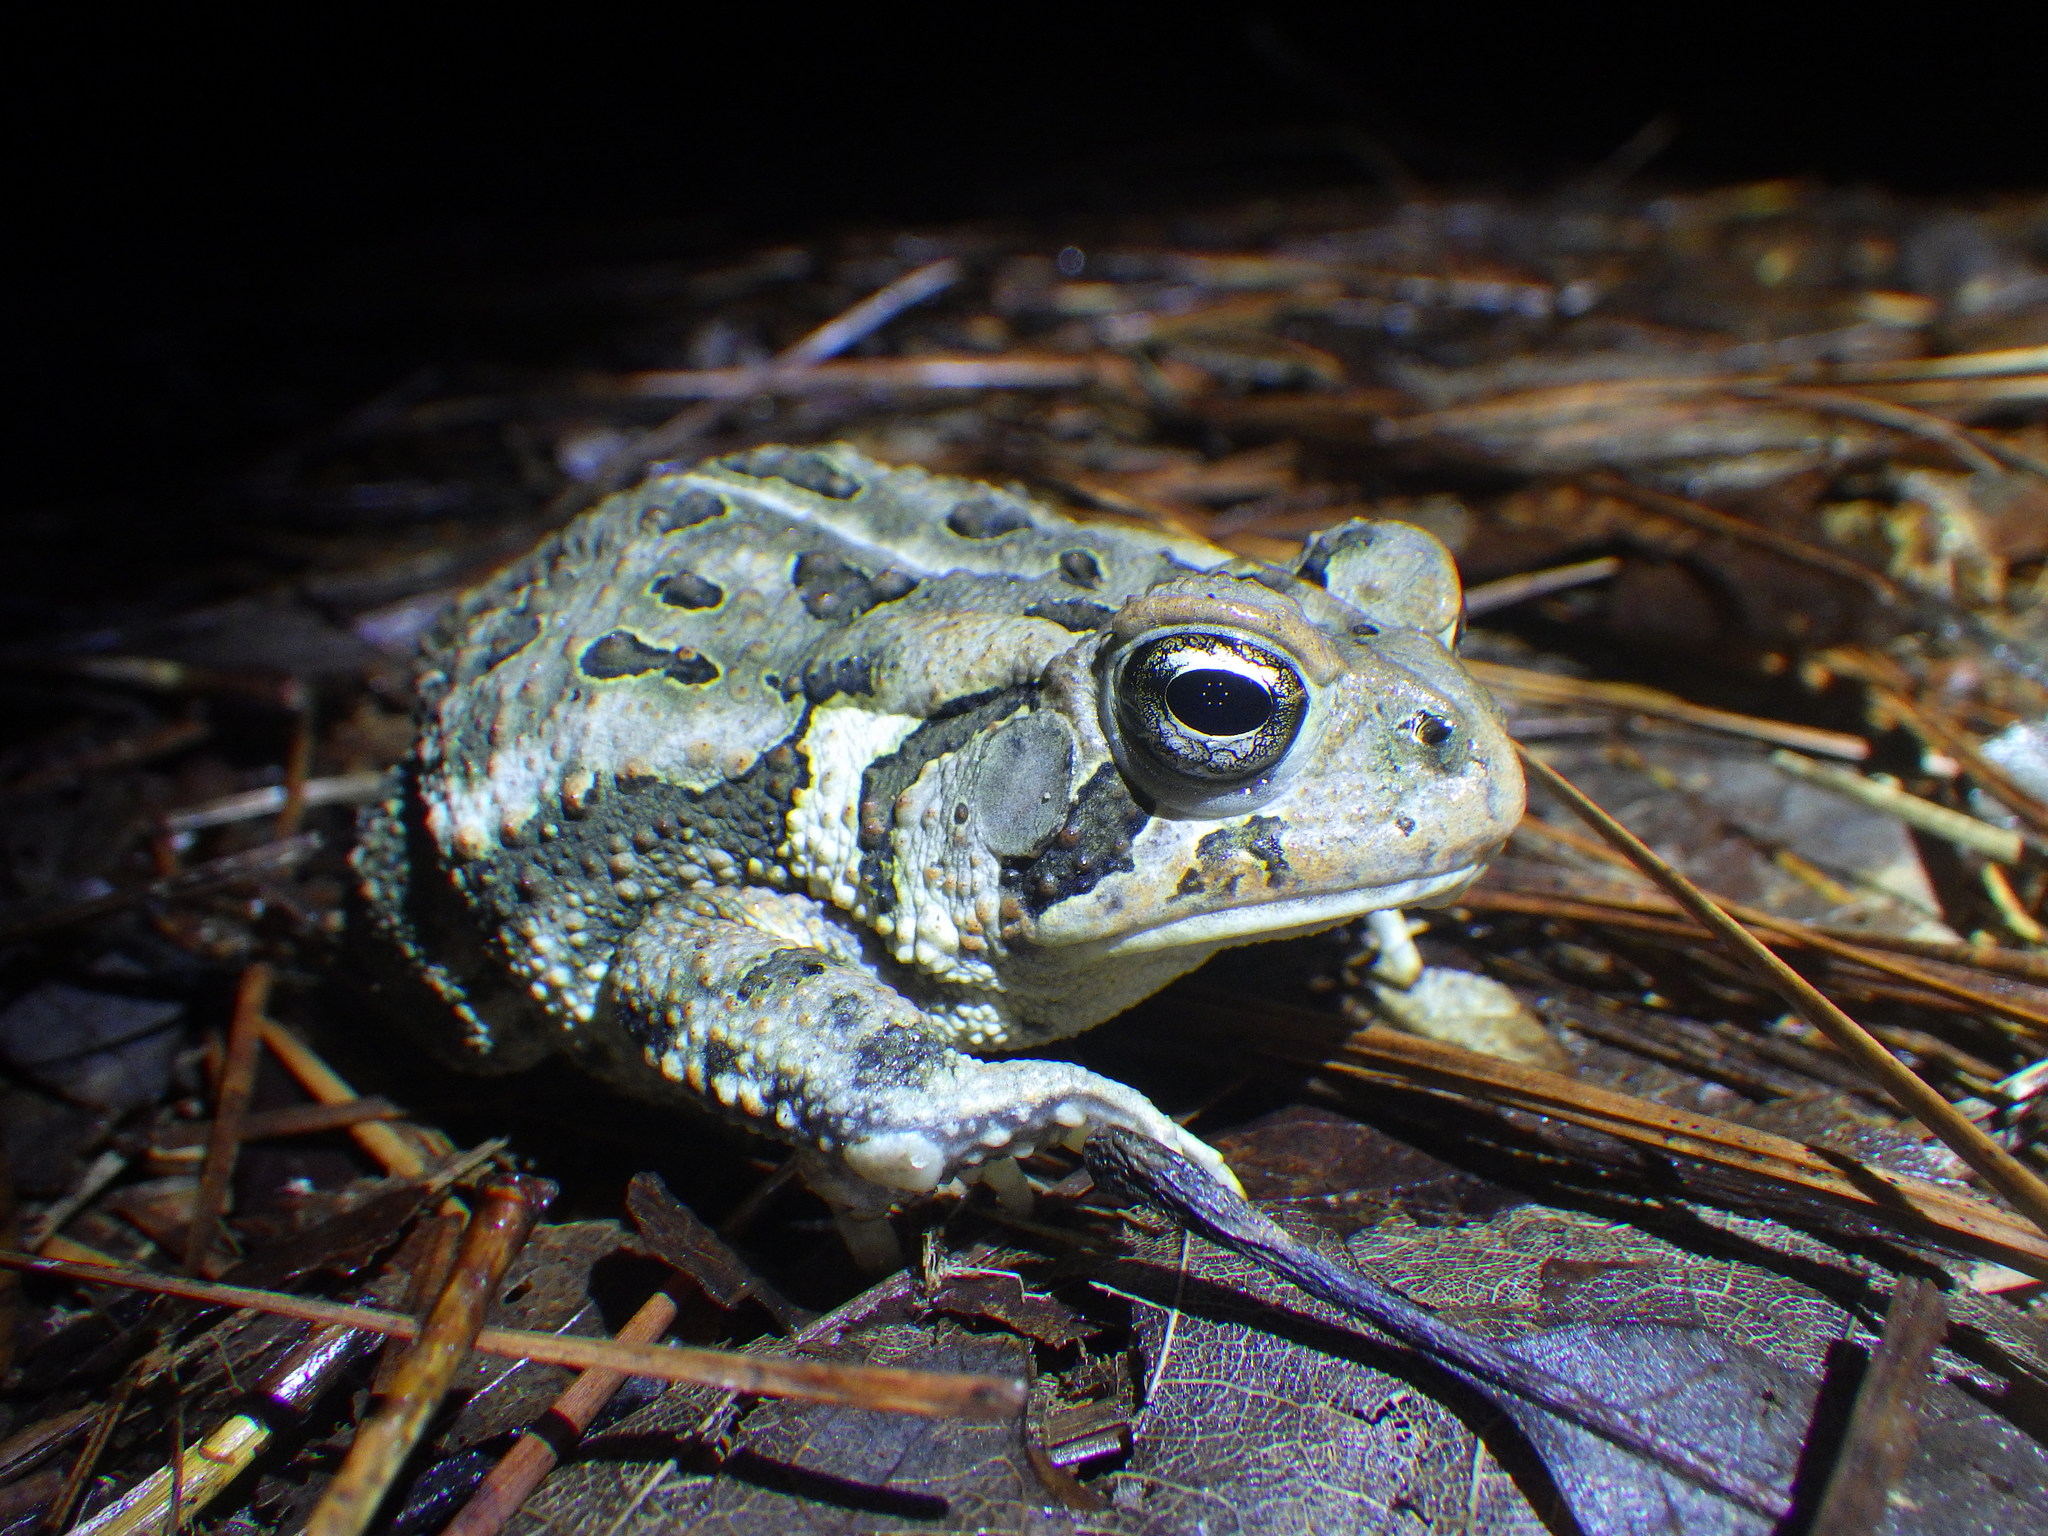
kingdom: Animalia
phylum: Chordata
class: Amphibia
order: Anura
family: Bufonidae
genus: Anaxyrus
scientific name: Anaxyrus fowleri
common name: Fowler's toad
